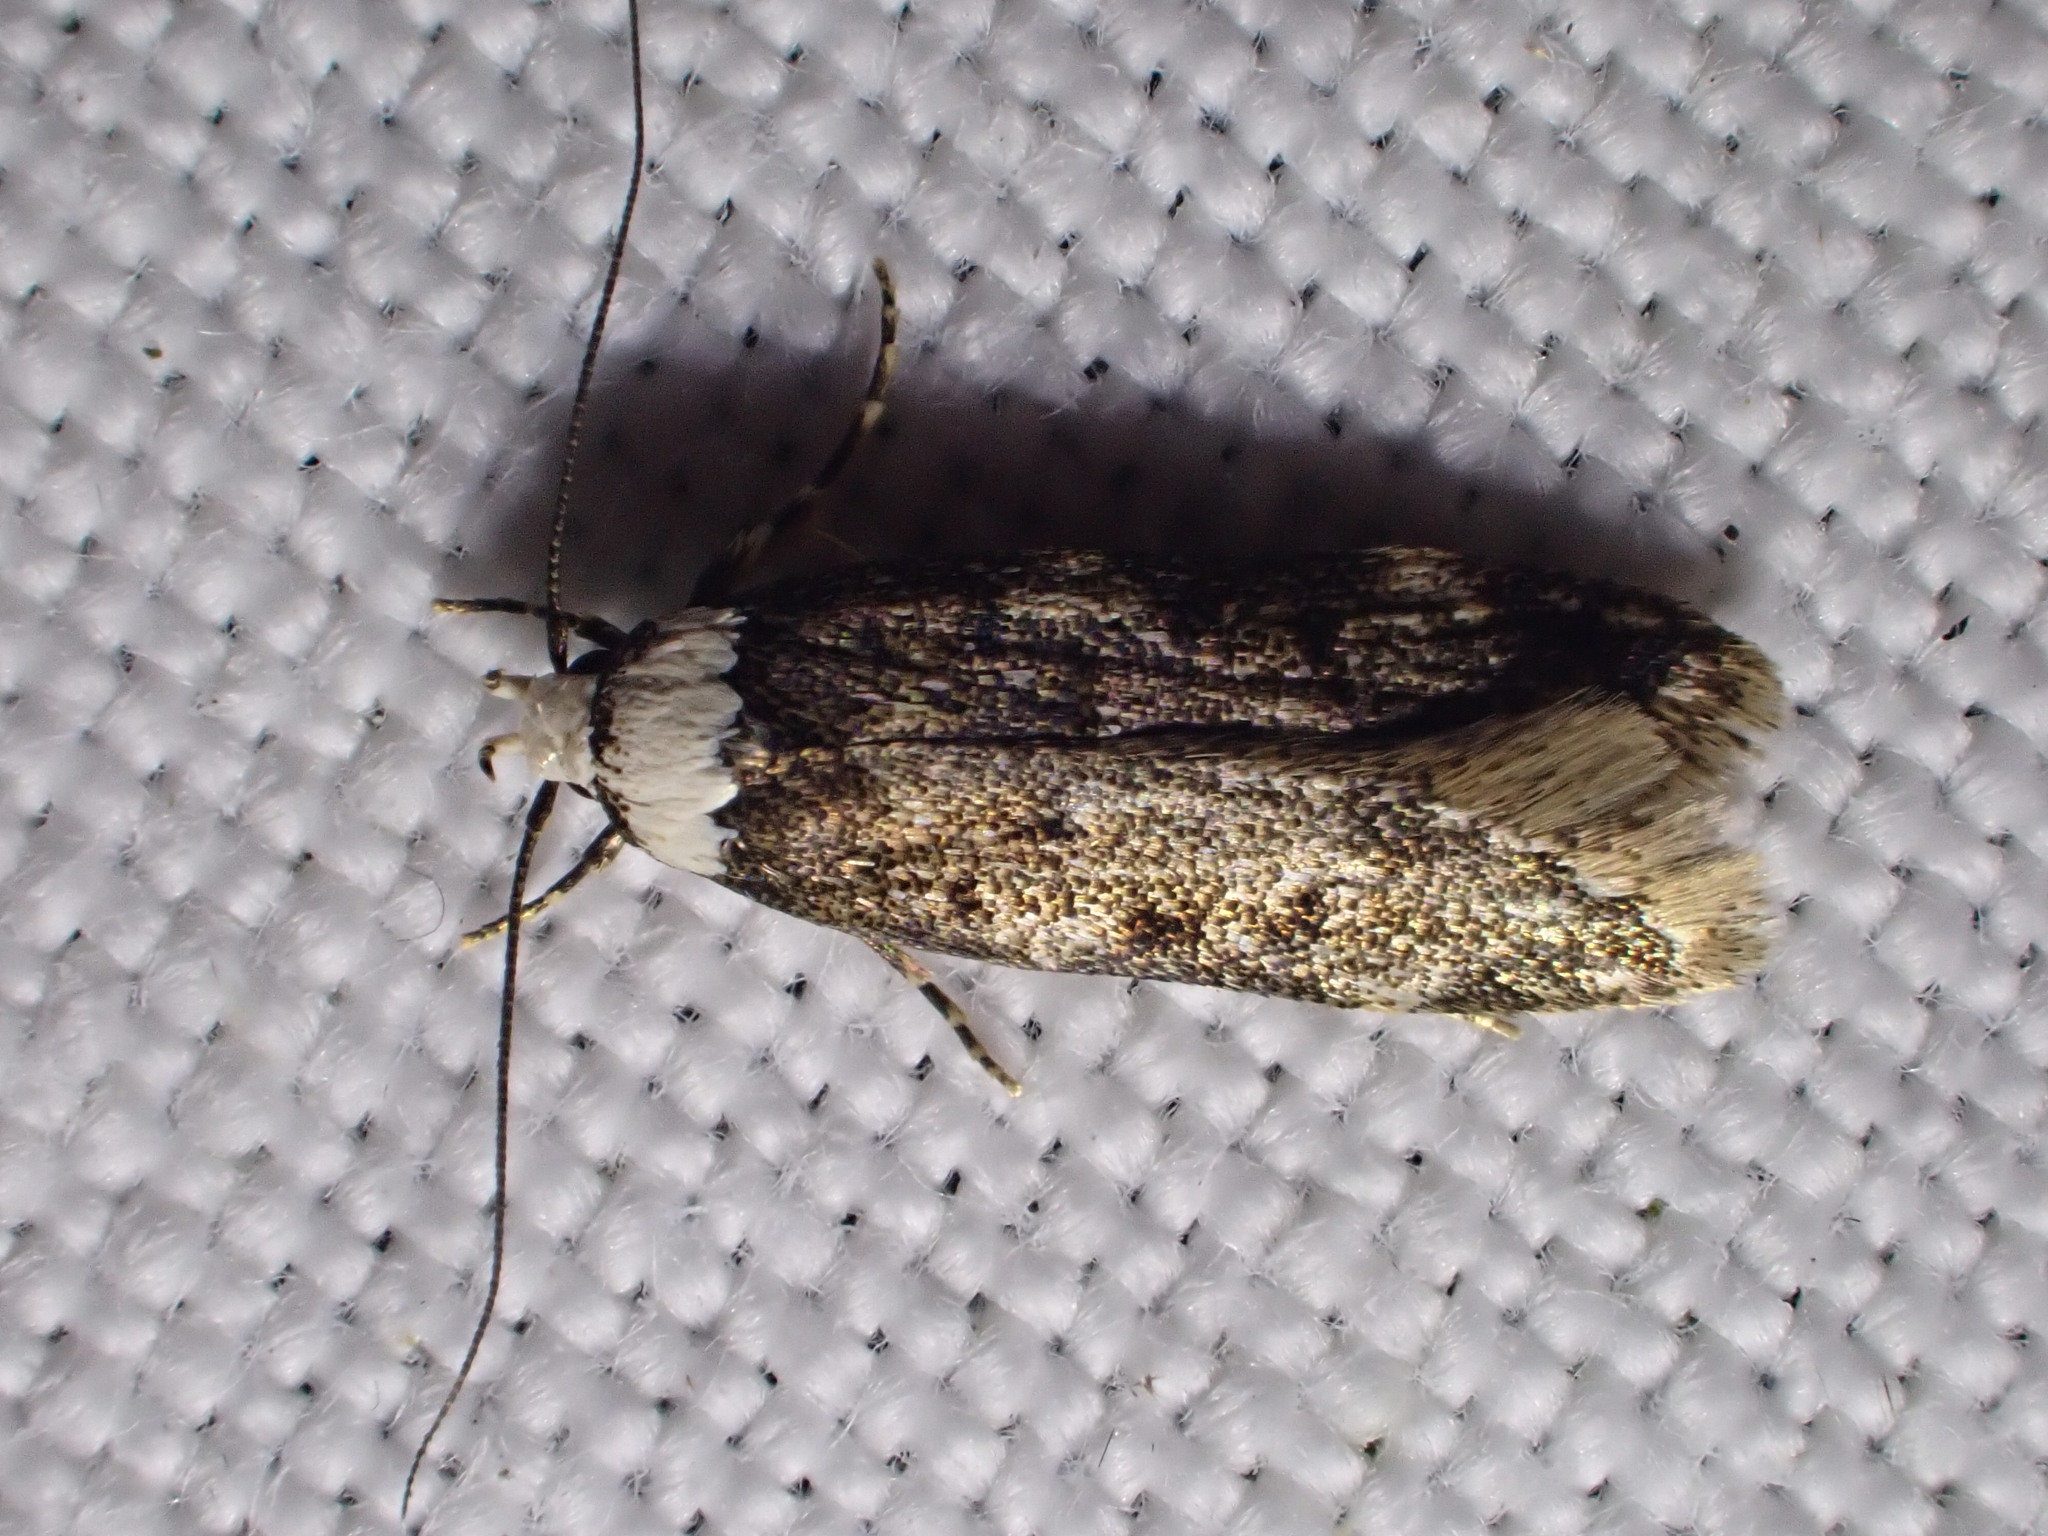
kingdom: Animalia
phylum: Arthropoda
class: Insecta
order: Lepidoptera
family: Oecophoridae
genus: Endrosis
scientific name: Endrosis sarcitrella
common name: White-shouldered house moth
